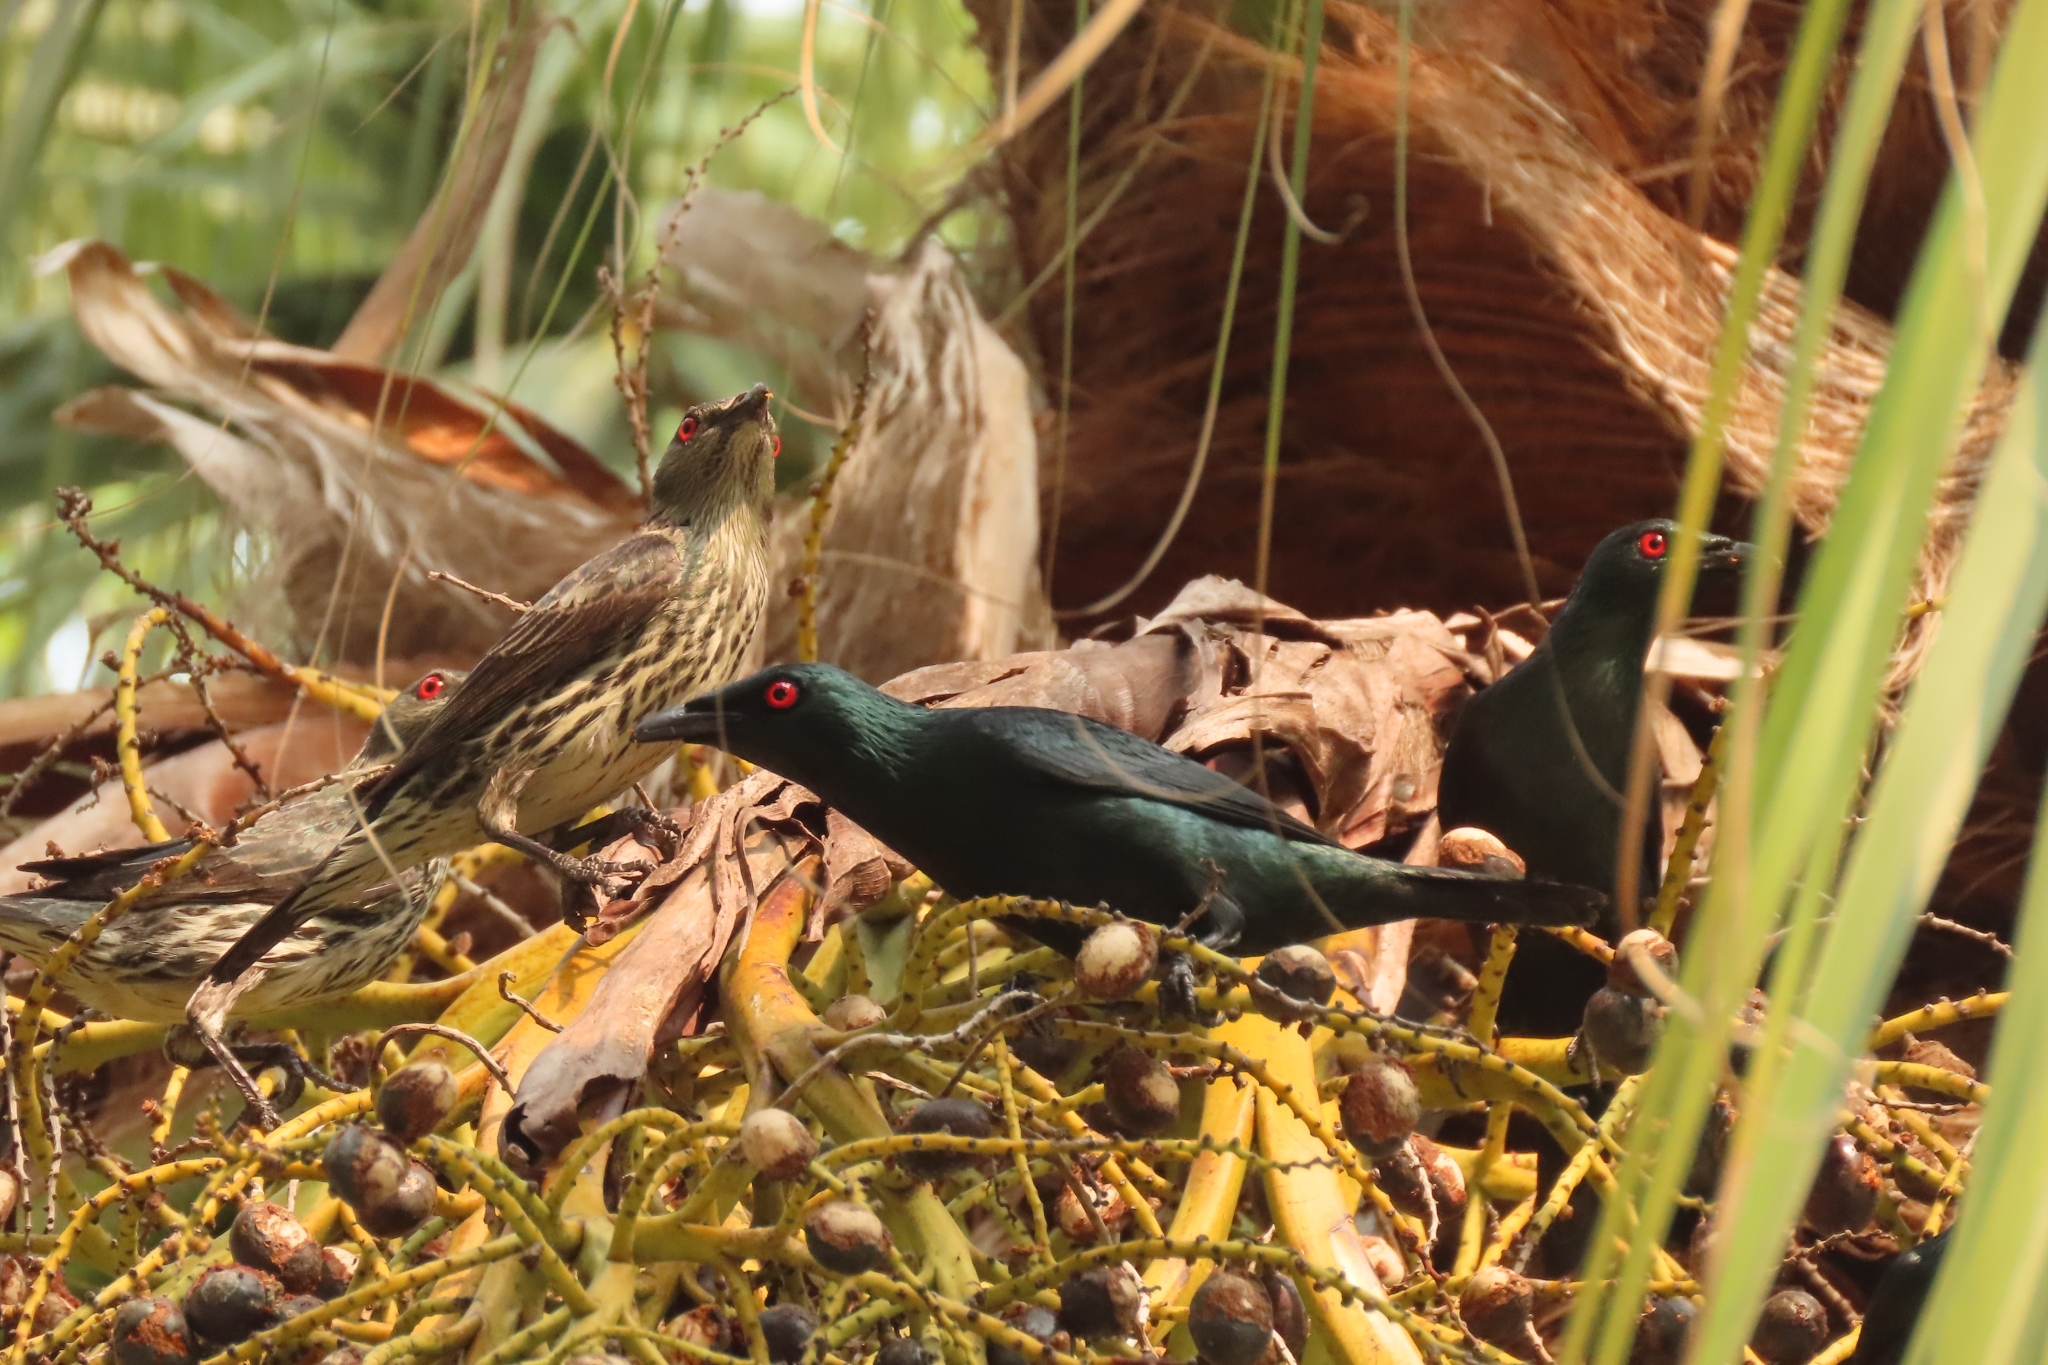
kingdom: Animalia
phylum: Chordata
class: Aves
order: Passeriformes
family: Sturnidae
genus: Aplonis
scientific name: Aplonis panayensis
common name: Asian glossy starling
